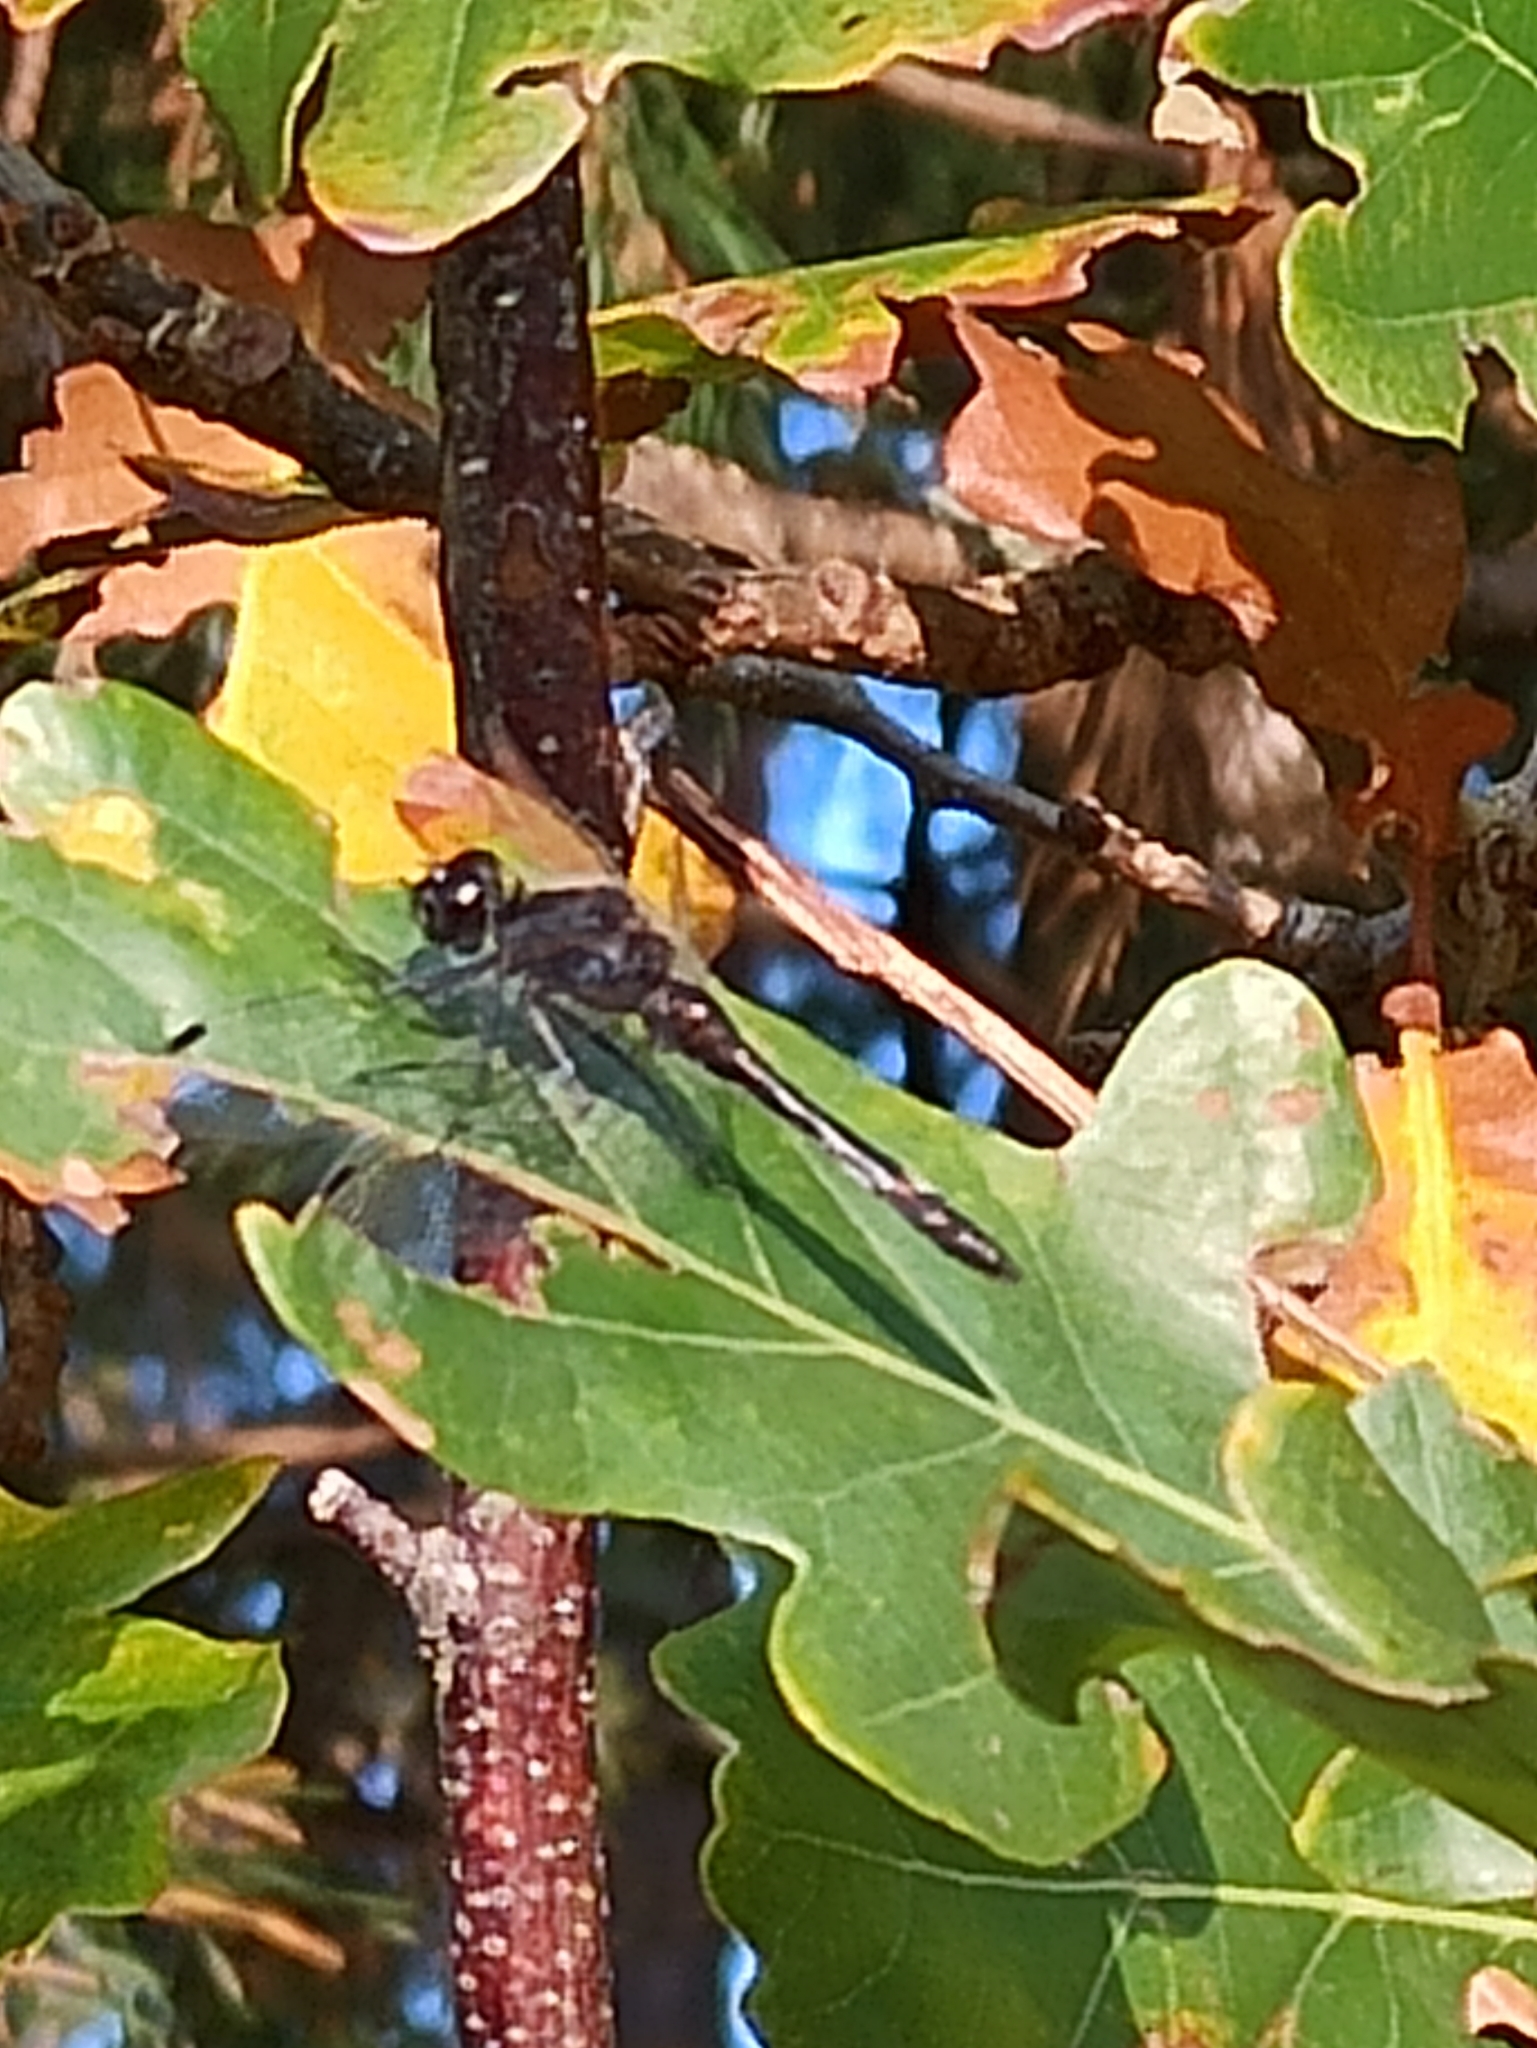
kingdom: Animalia
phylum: Arthropoda
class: Insecta
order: Odonata
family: Libellulidae
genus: Sympetrum
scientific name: Sympetrum danae
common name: Black darter
